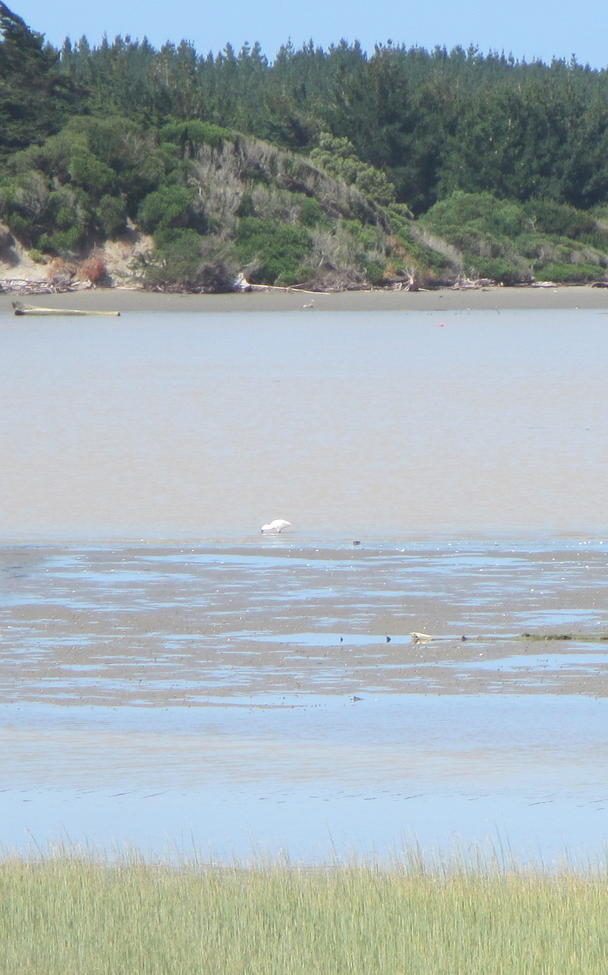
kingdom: Animalia
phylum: Chordata
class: Aves
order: Pelecaniformes
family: Threskiornithidae
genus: Platalea
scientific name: Platalea regia
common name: Royal spoonbill
